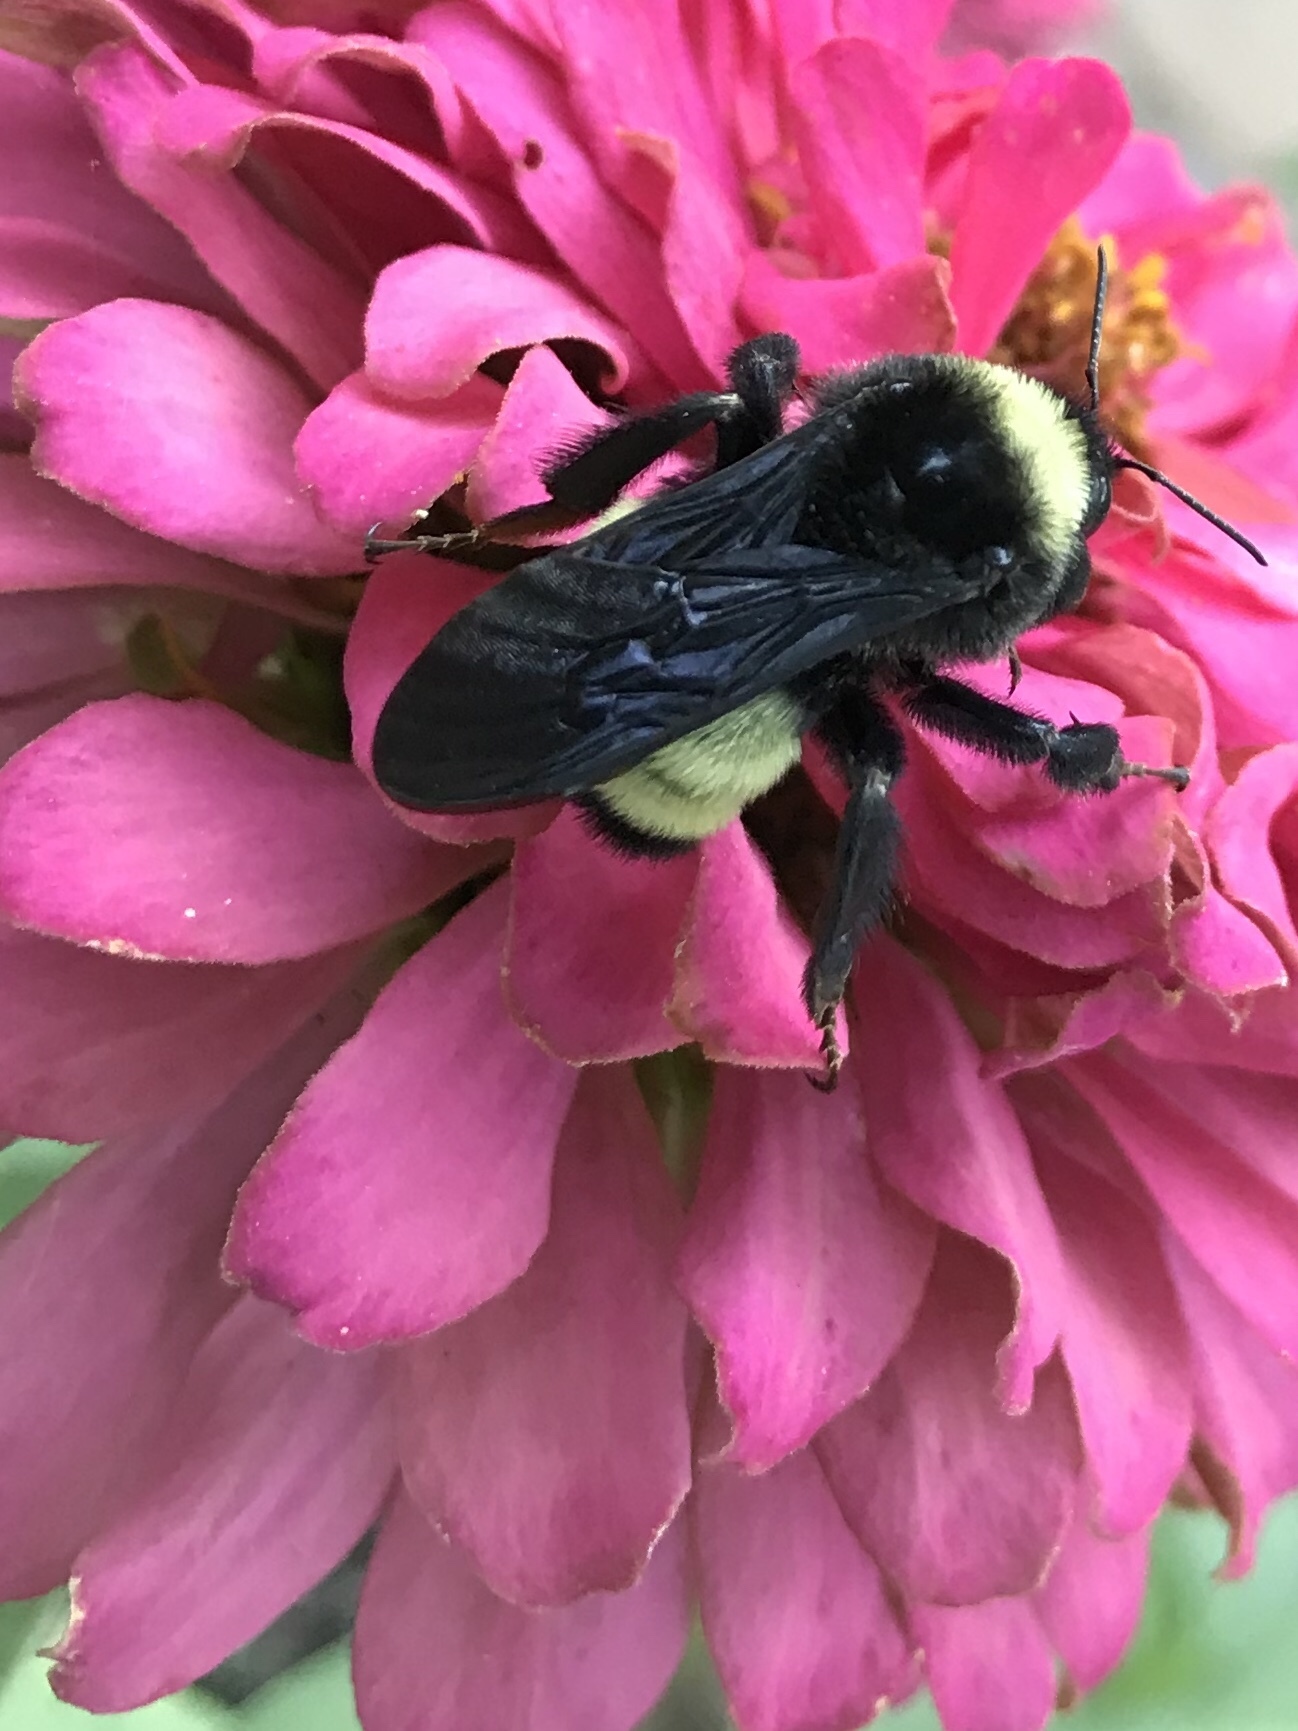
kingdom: Animalia
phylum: Arthropoda
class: Insecta
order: Hymenoptera
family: Apidae
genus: Bombus
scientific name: Bombus pensylvanicus
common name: Bumble bee
